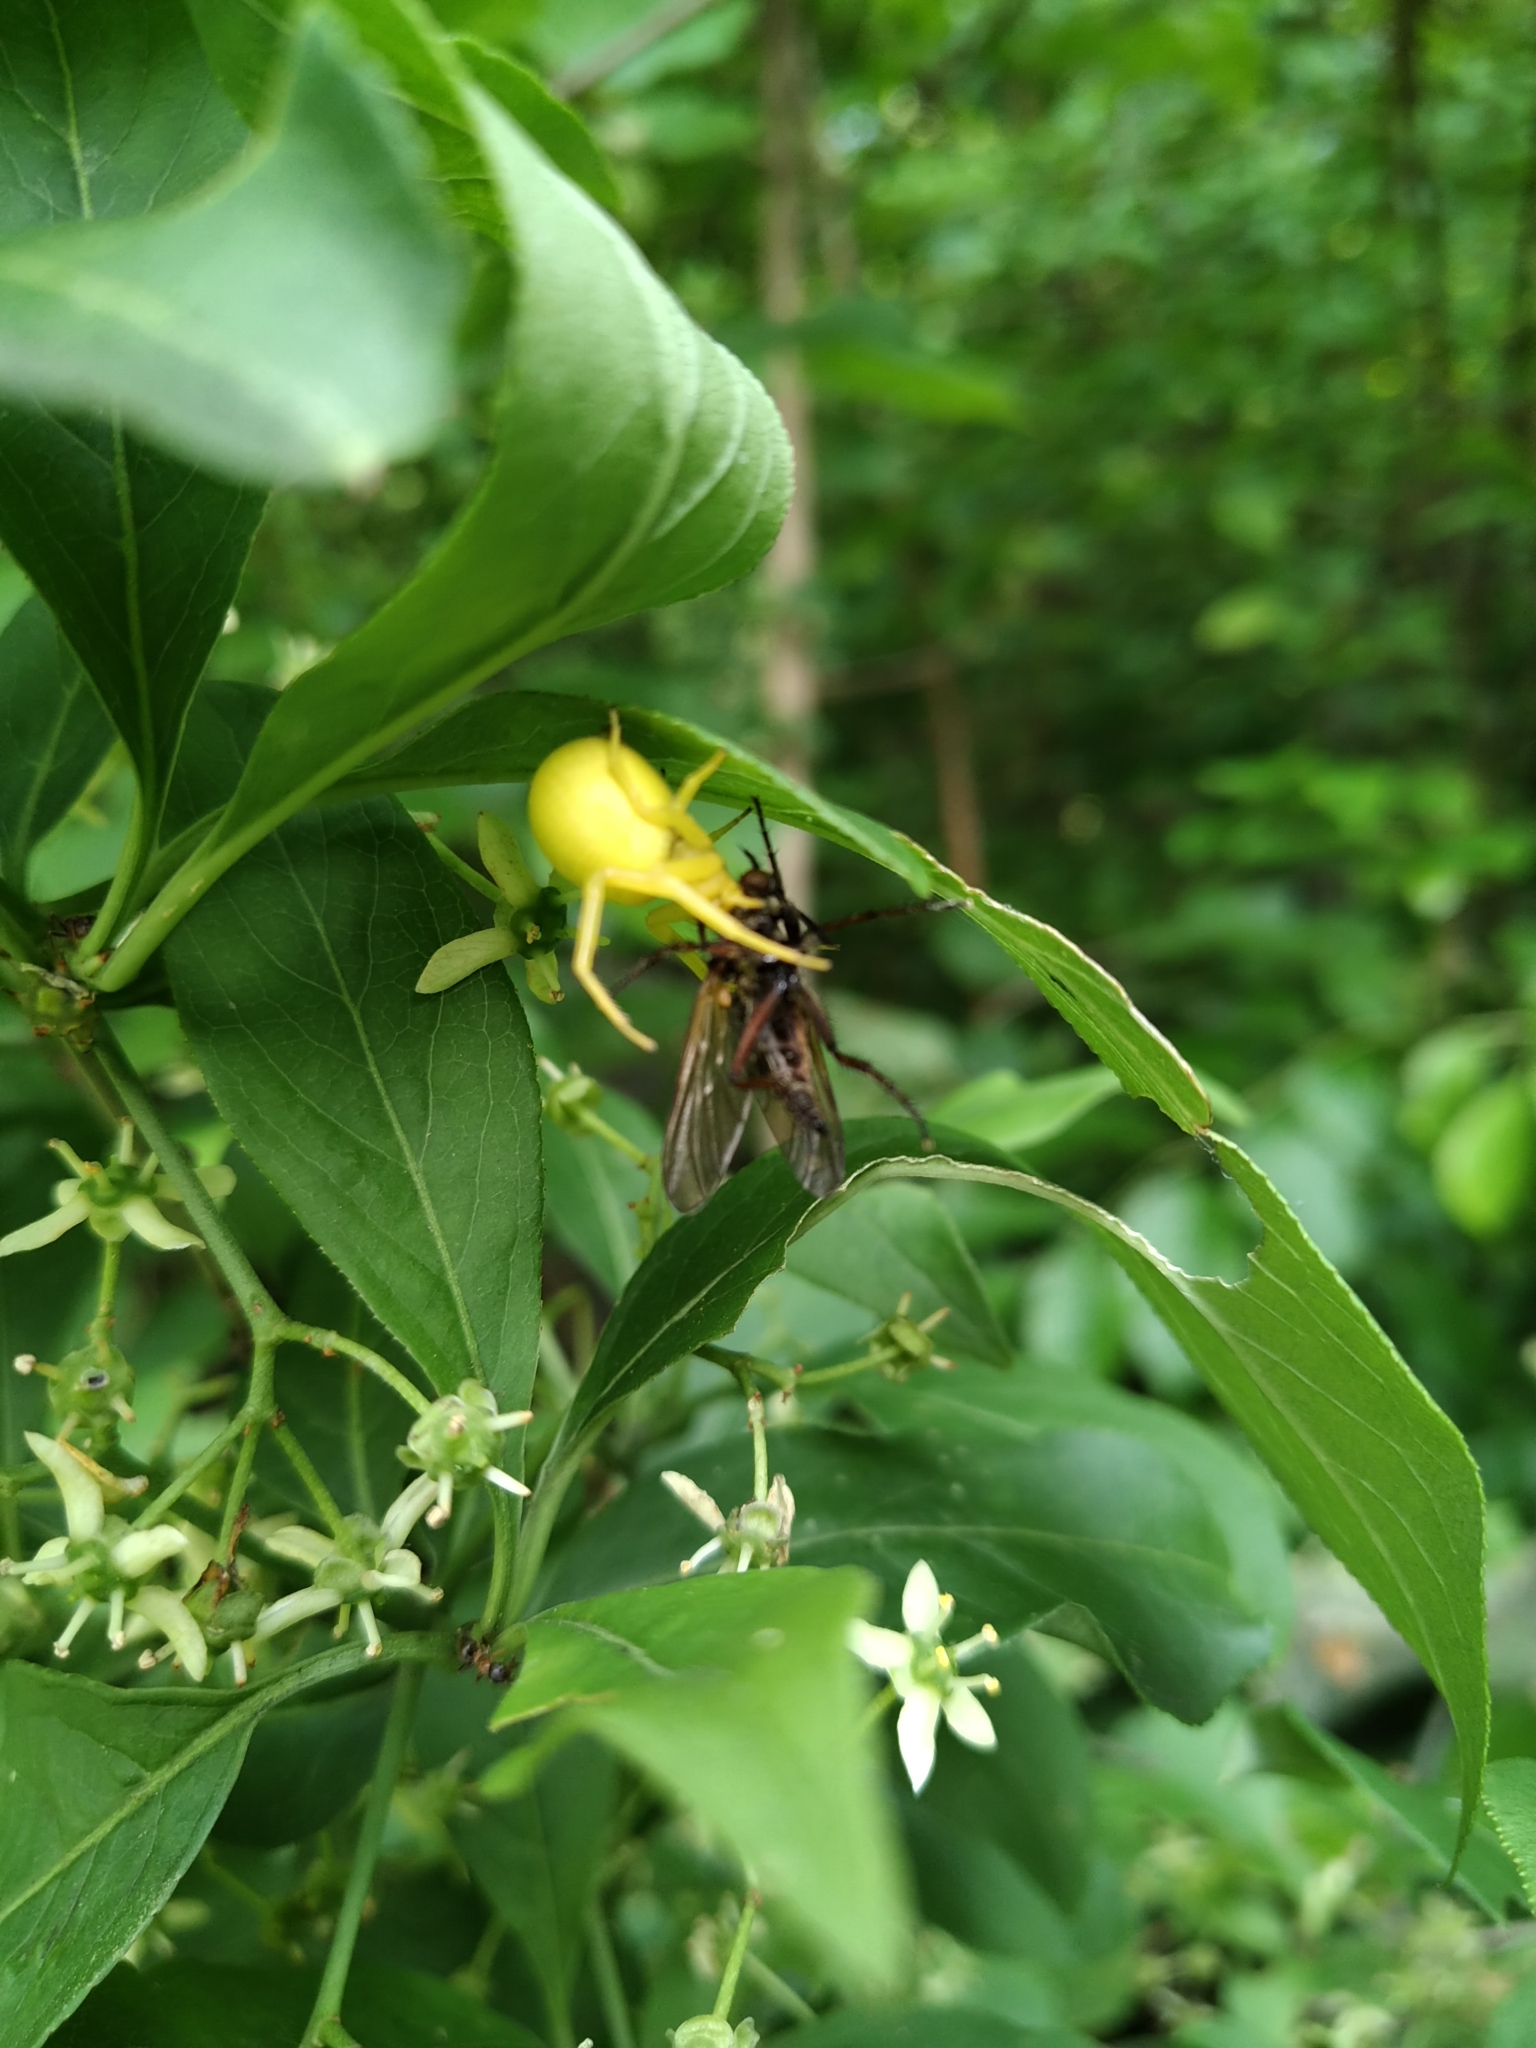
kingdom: Animalia
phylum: Arthropoda
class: Arachnida
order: Araneae
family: Thomisidae
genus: Misumena
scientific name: Misumena vatia
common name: Goldenrod crab spider
